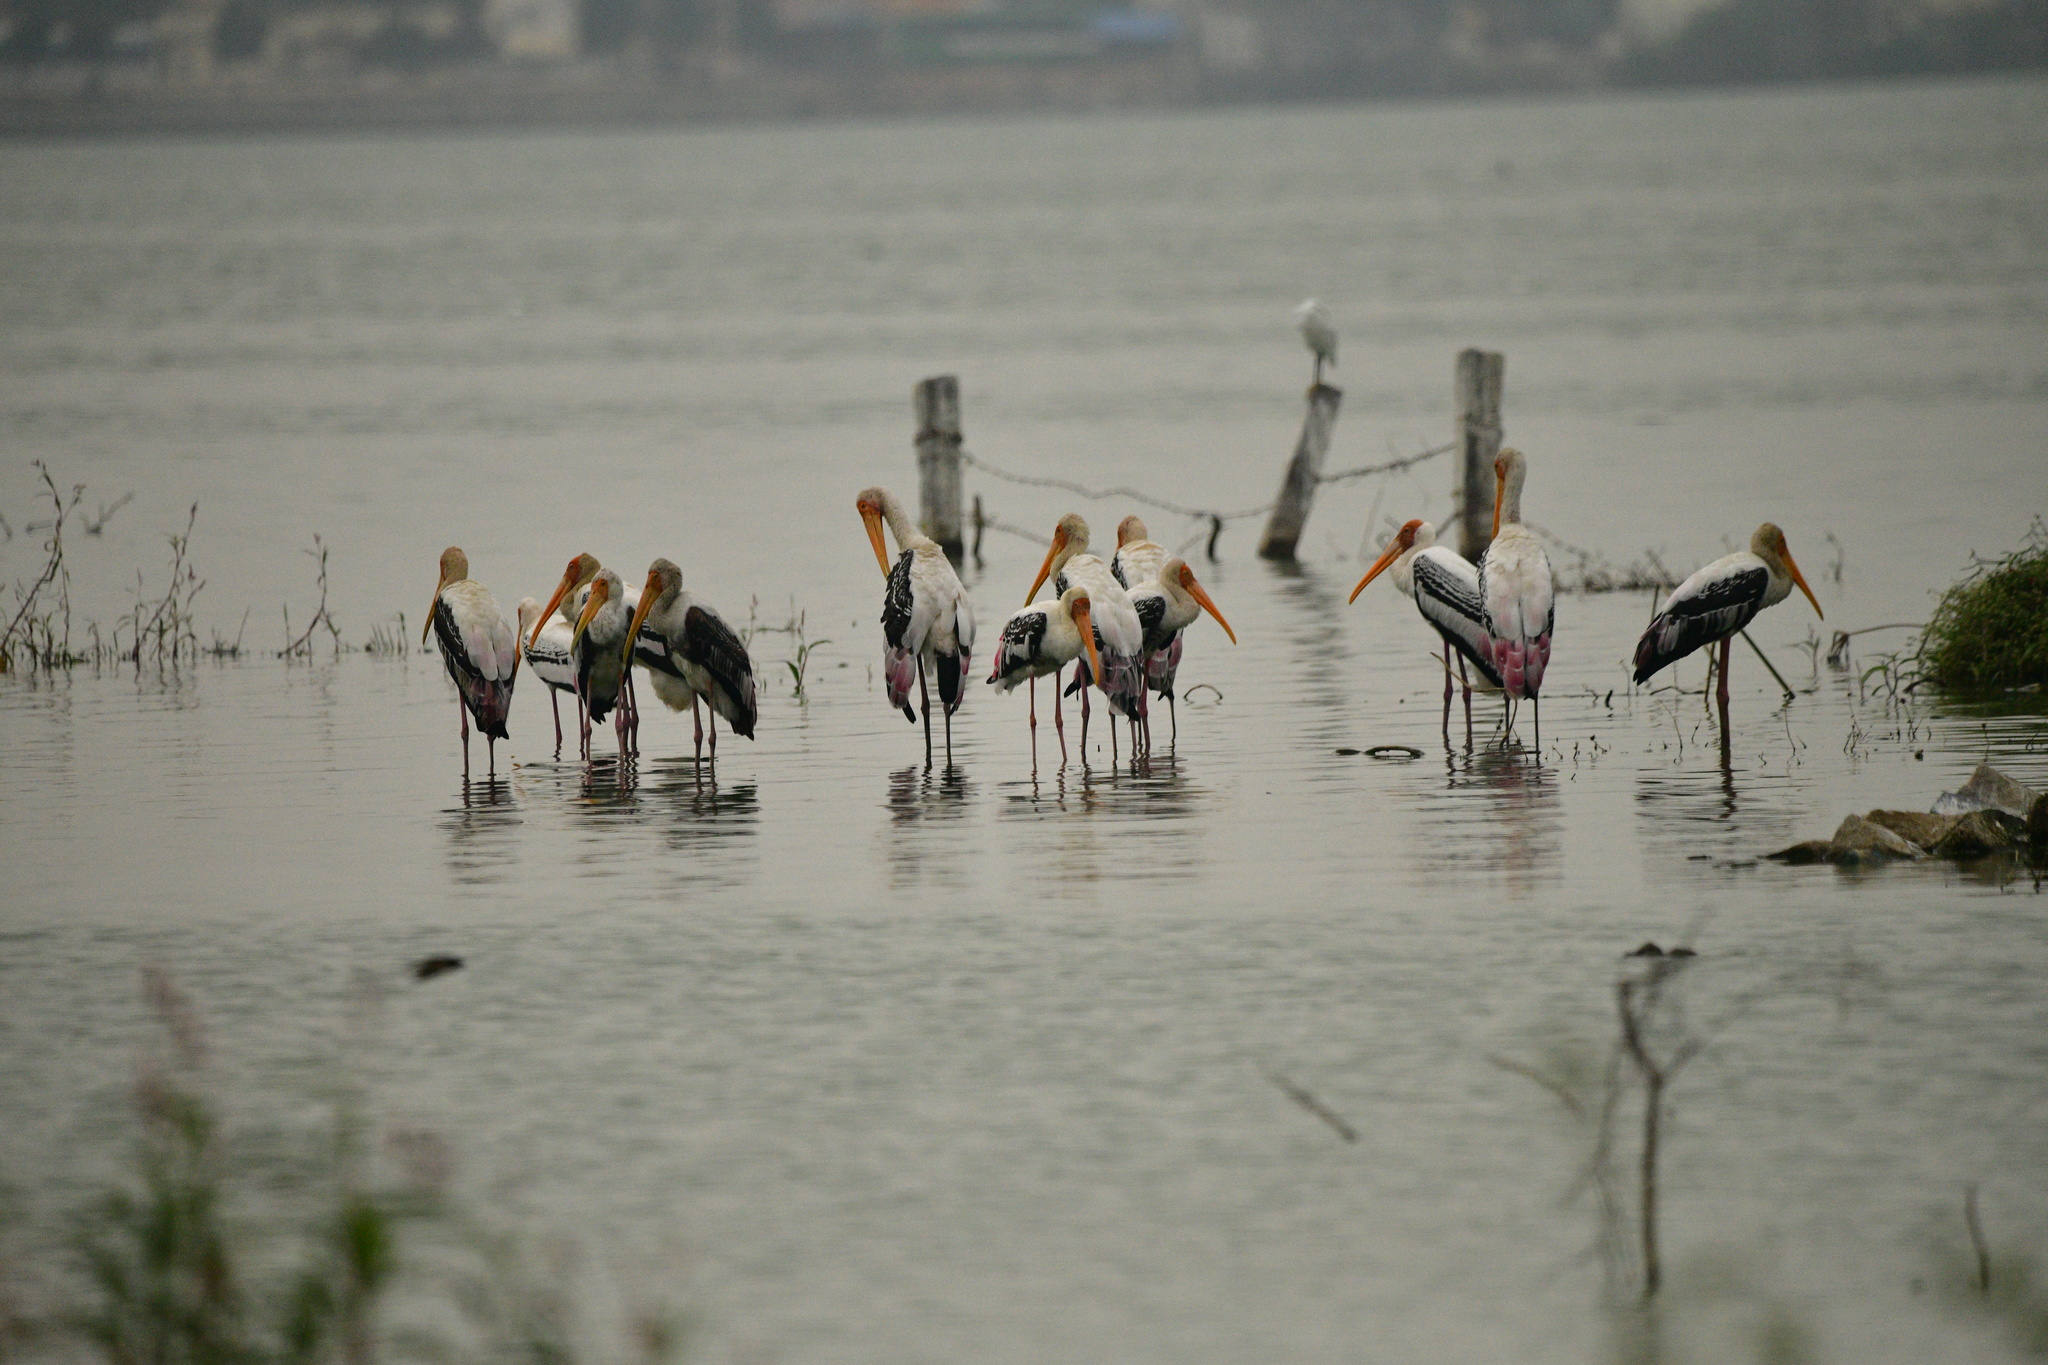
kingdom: Animalia
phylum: Chordata
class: Aves
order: Ciconiiformes
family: Ciconiidae
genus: Mycteria
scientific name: Mycteria leucocephala
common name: Painted stork
